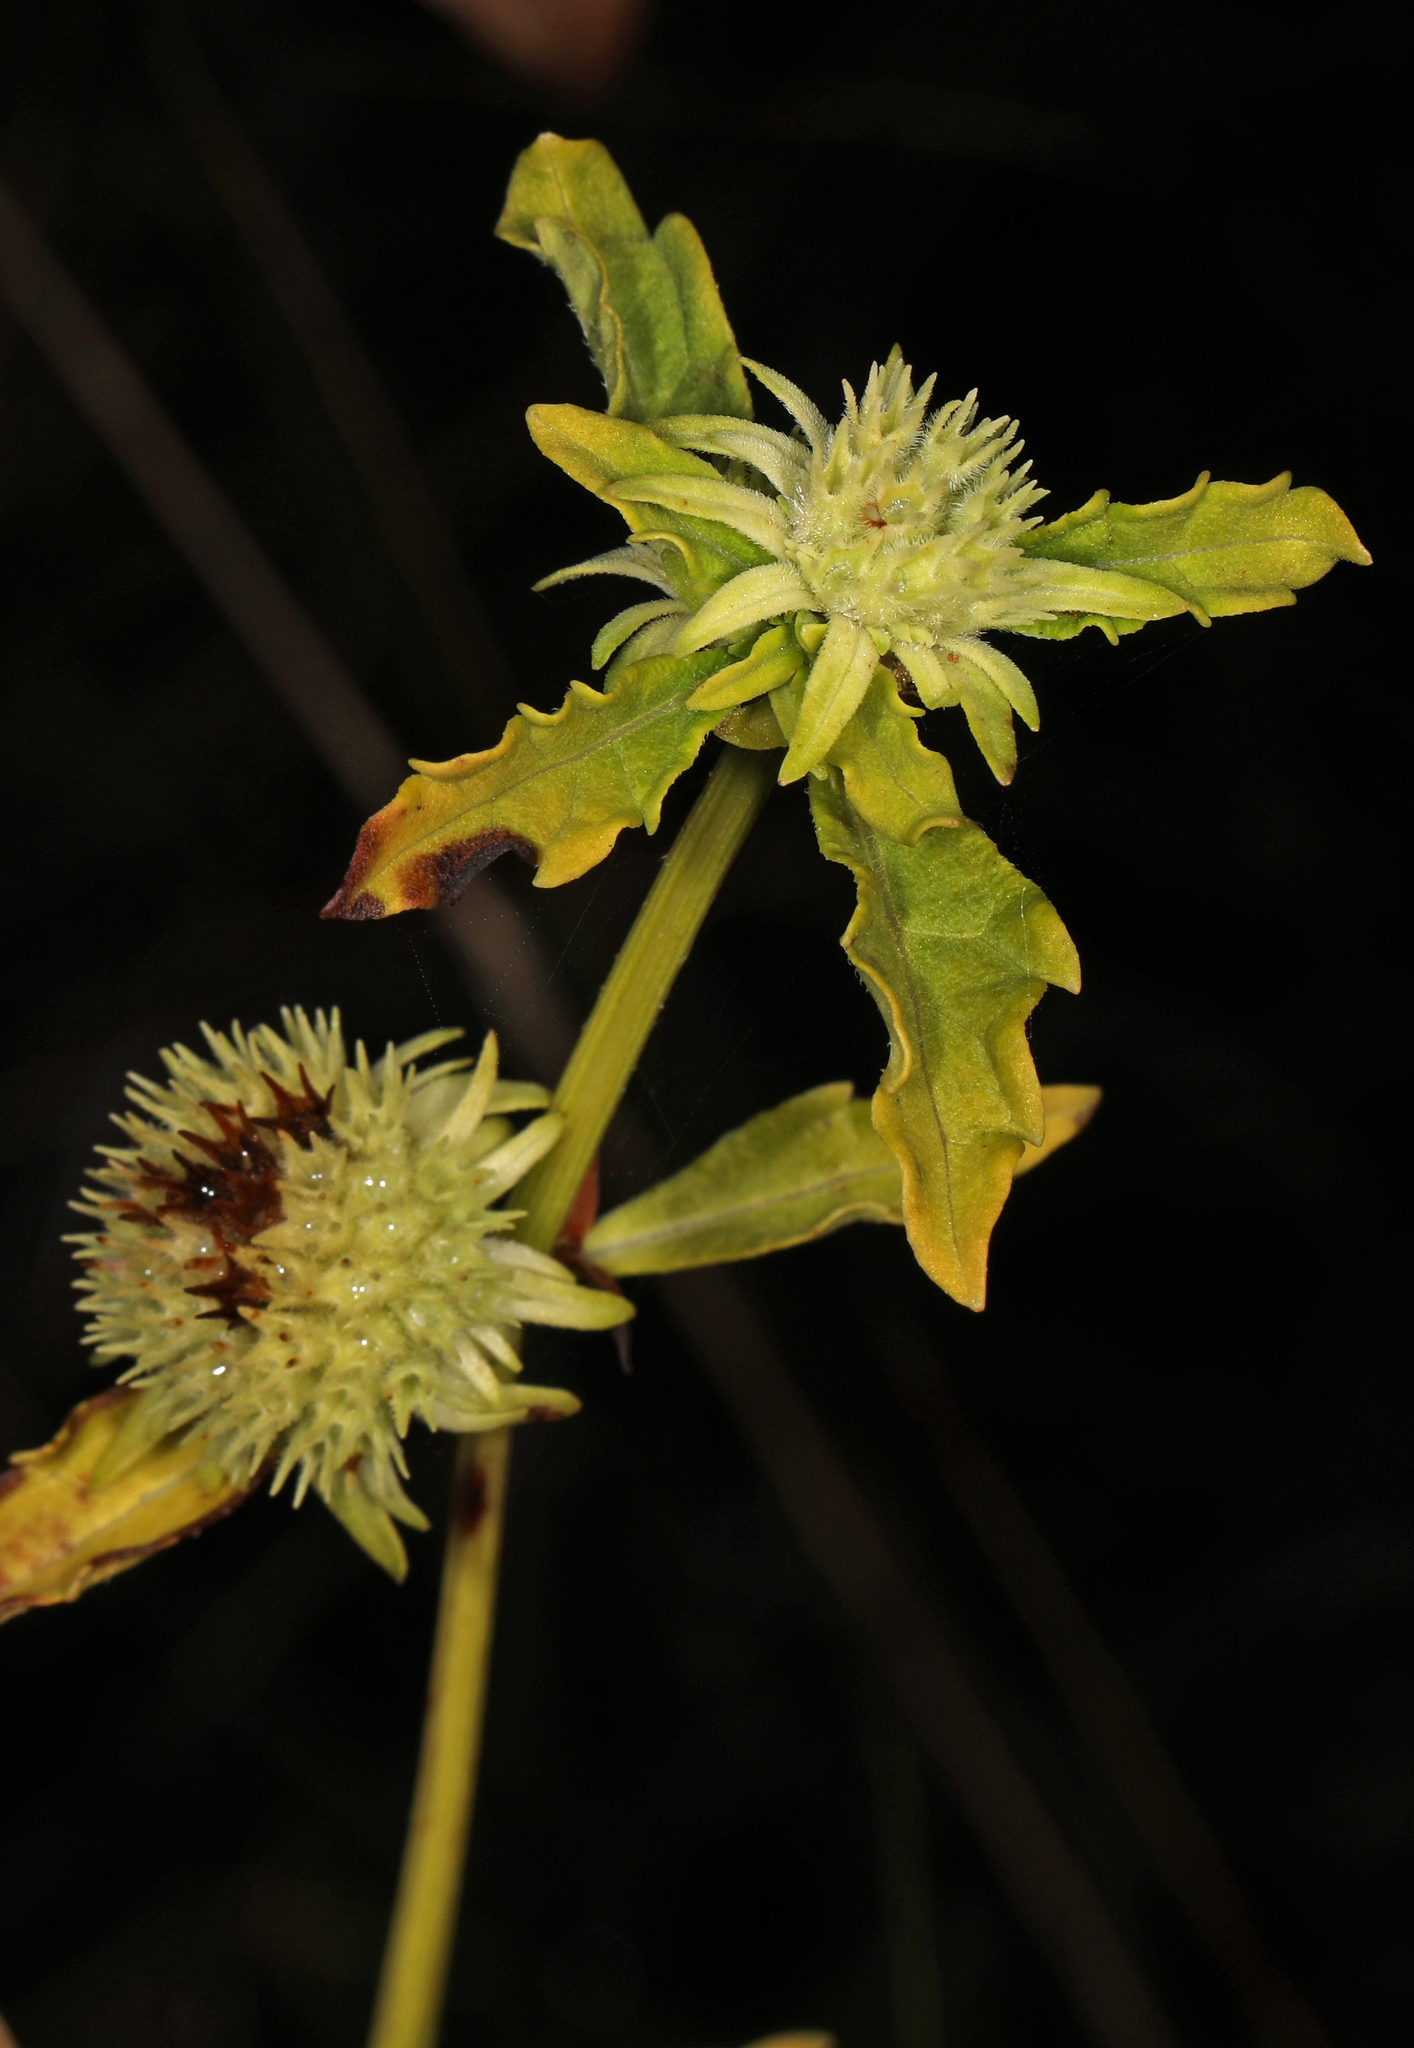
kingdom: Plantae
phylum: Tracheophyta
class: Magnoliopsida
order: Lamiales
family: Lamiaceae
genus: Hyptis
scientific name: Hyptis alata
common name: Cluster bush-mint
